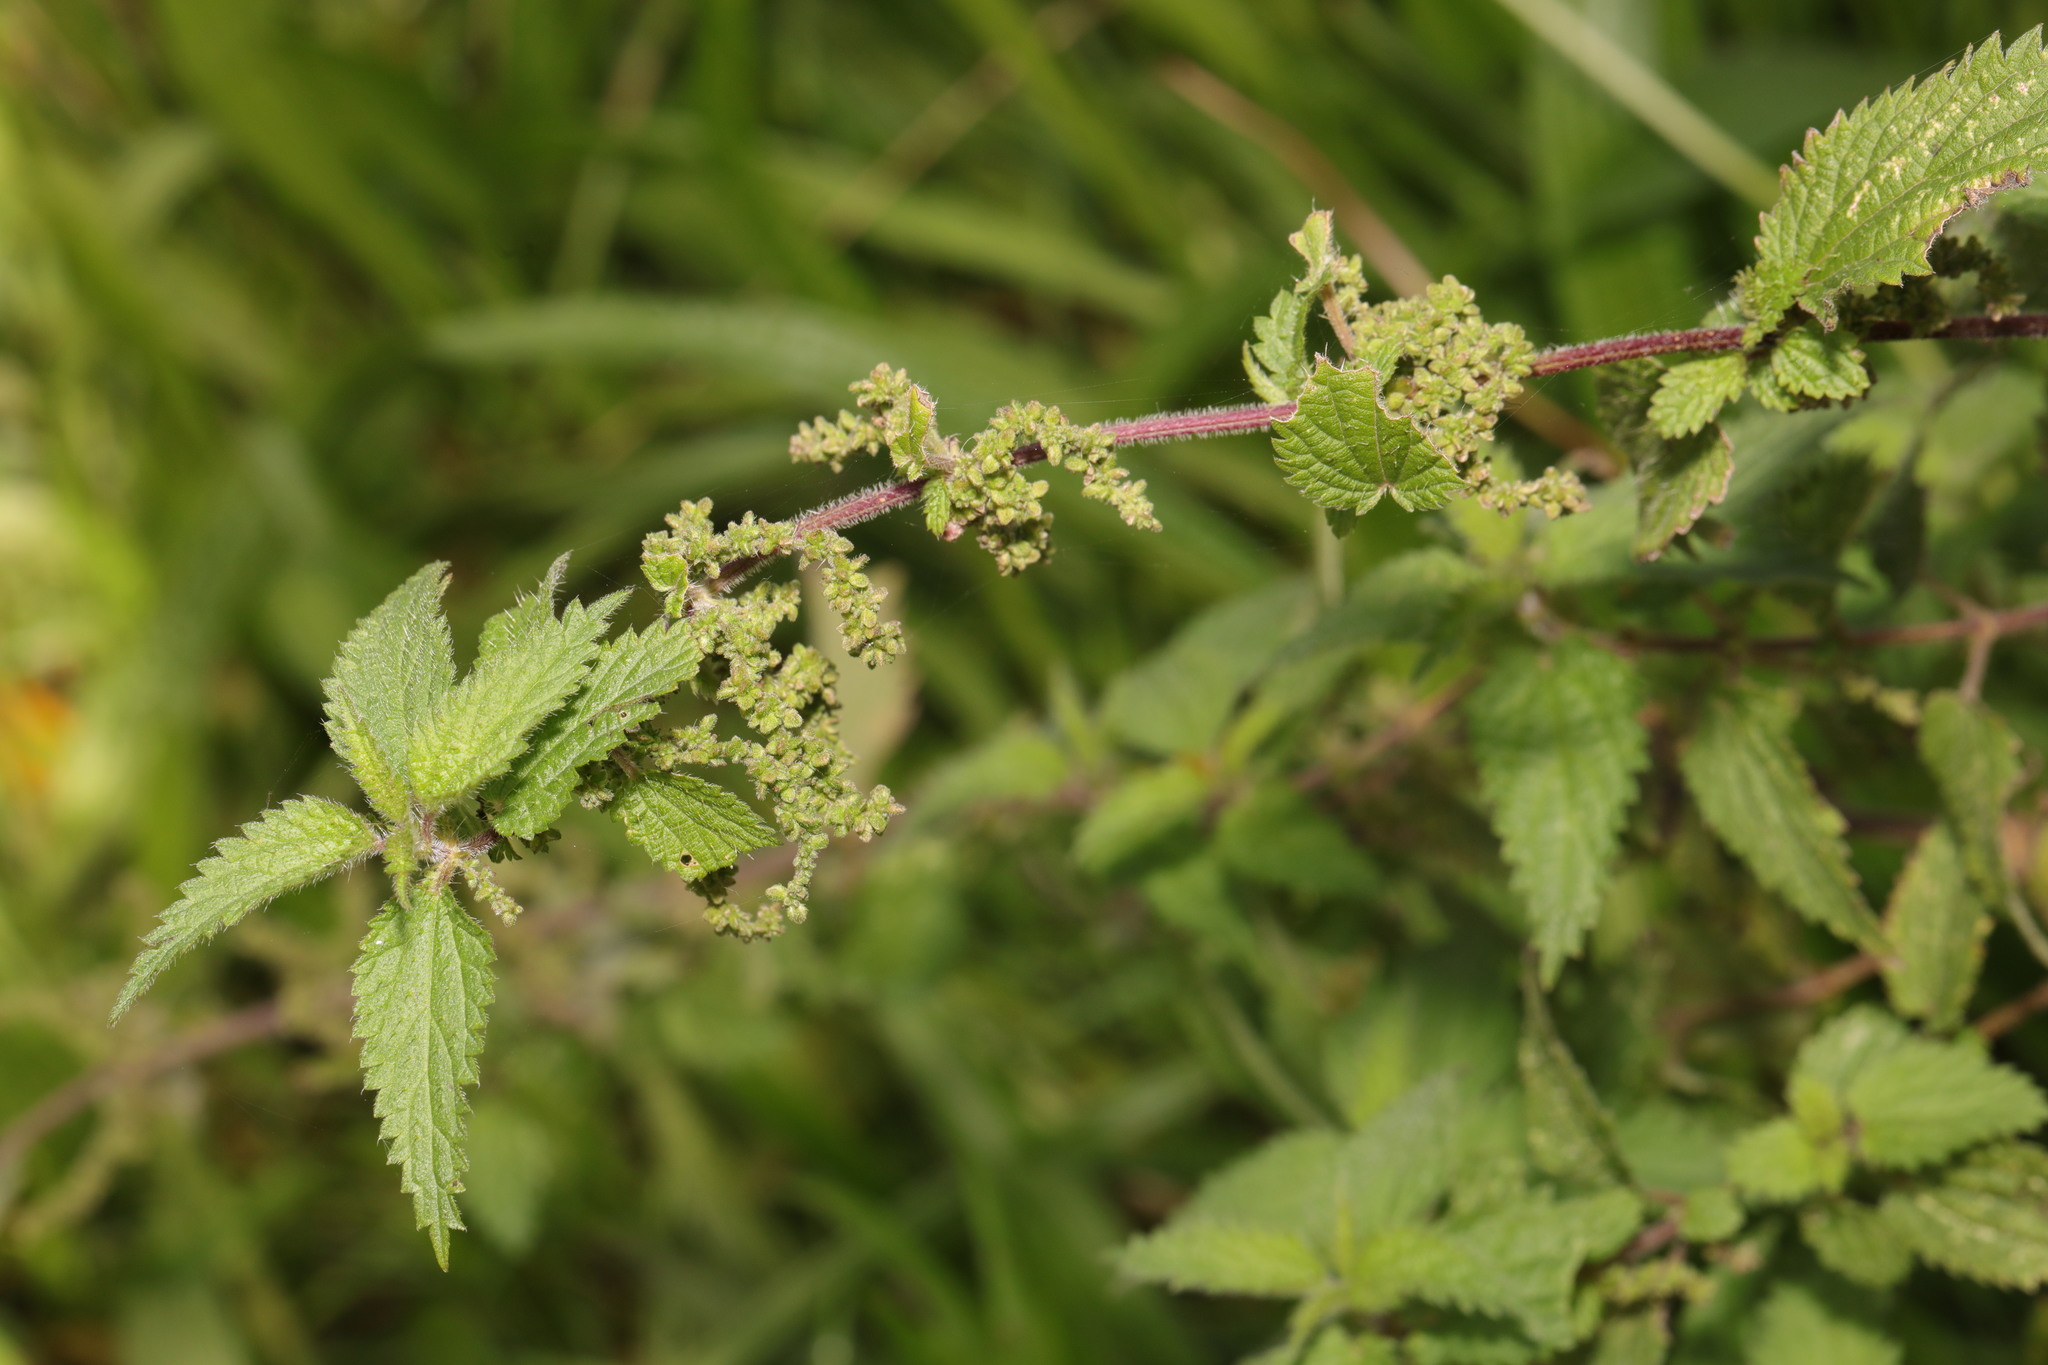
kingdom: Plantae
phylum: Tracheophyta
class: Magnoliopsida
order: Rosales
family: Urticaceae
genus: Urtica
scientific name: Urtica dioica
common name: Common nettle
